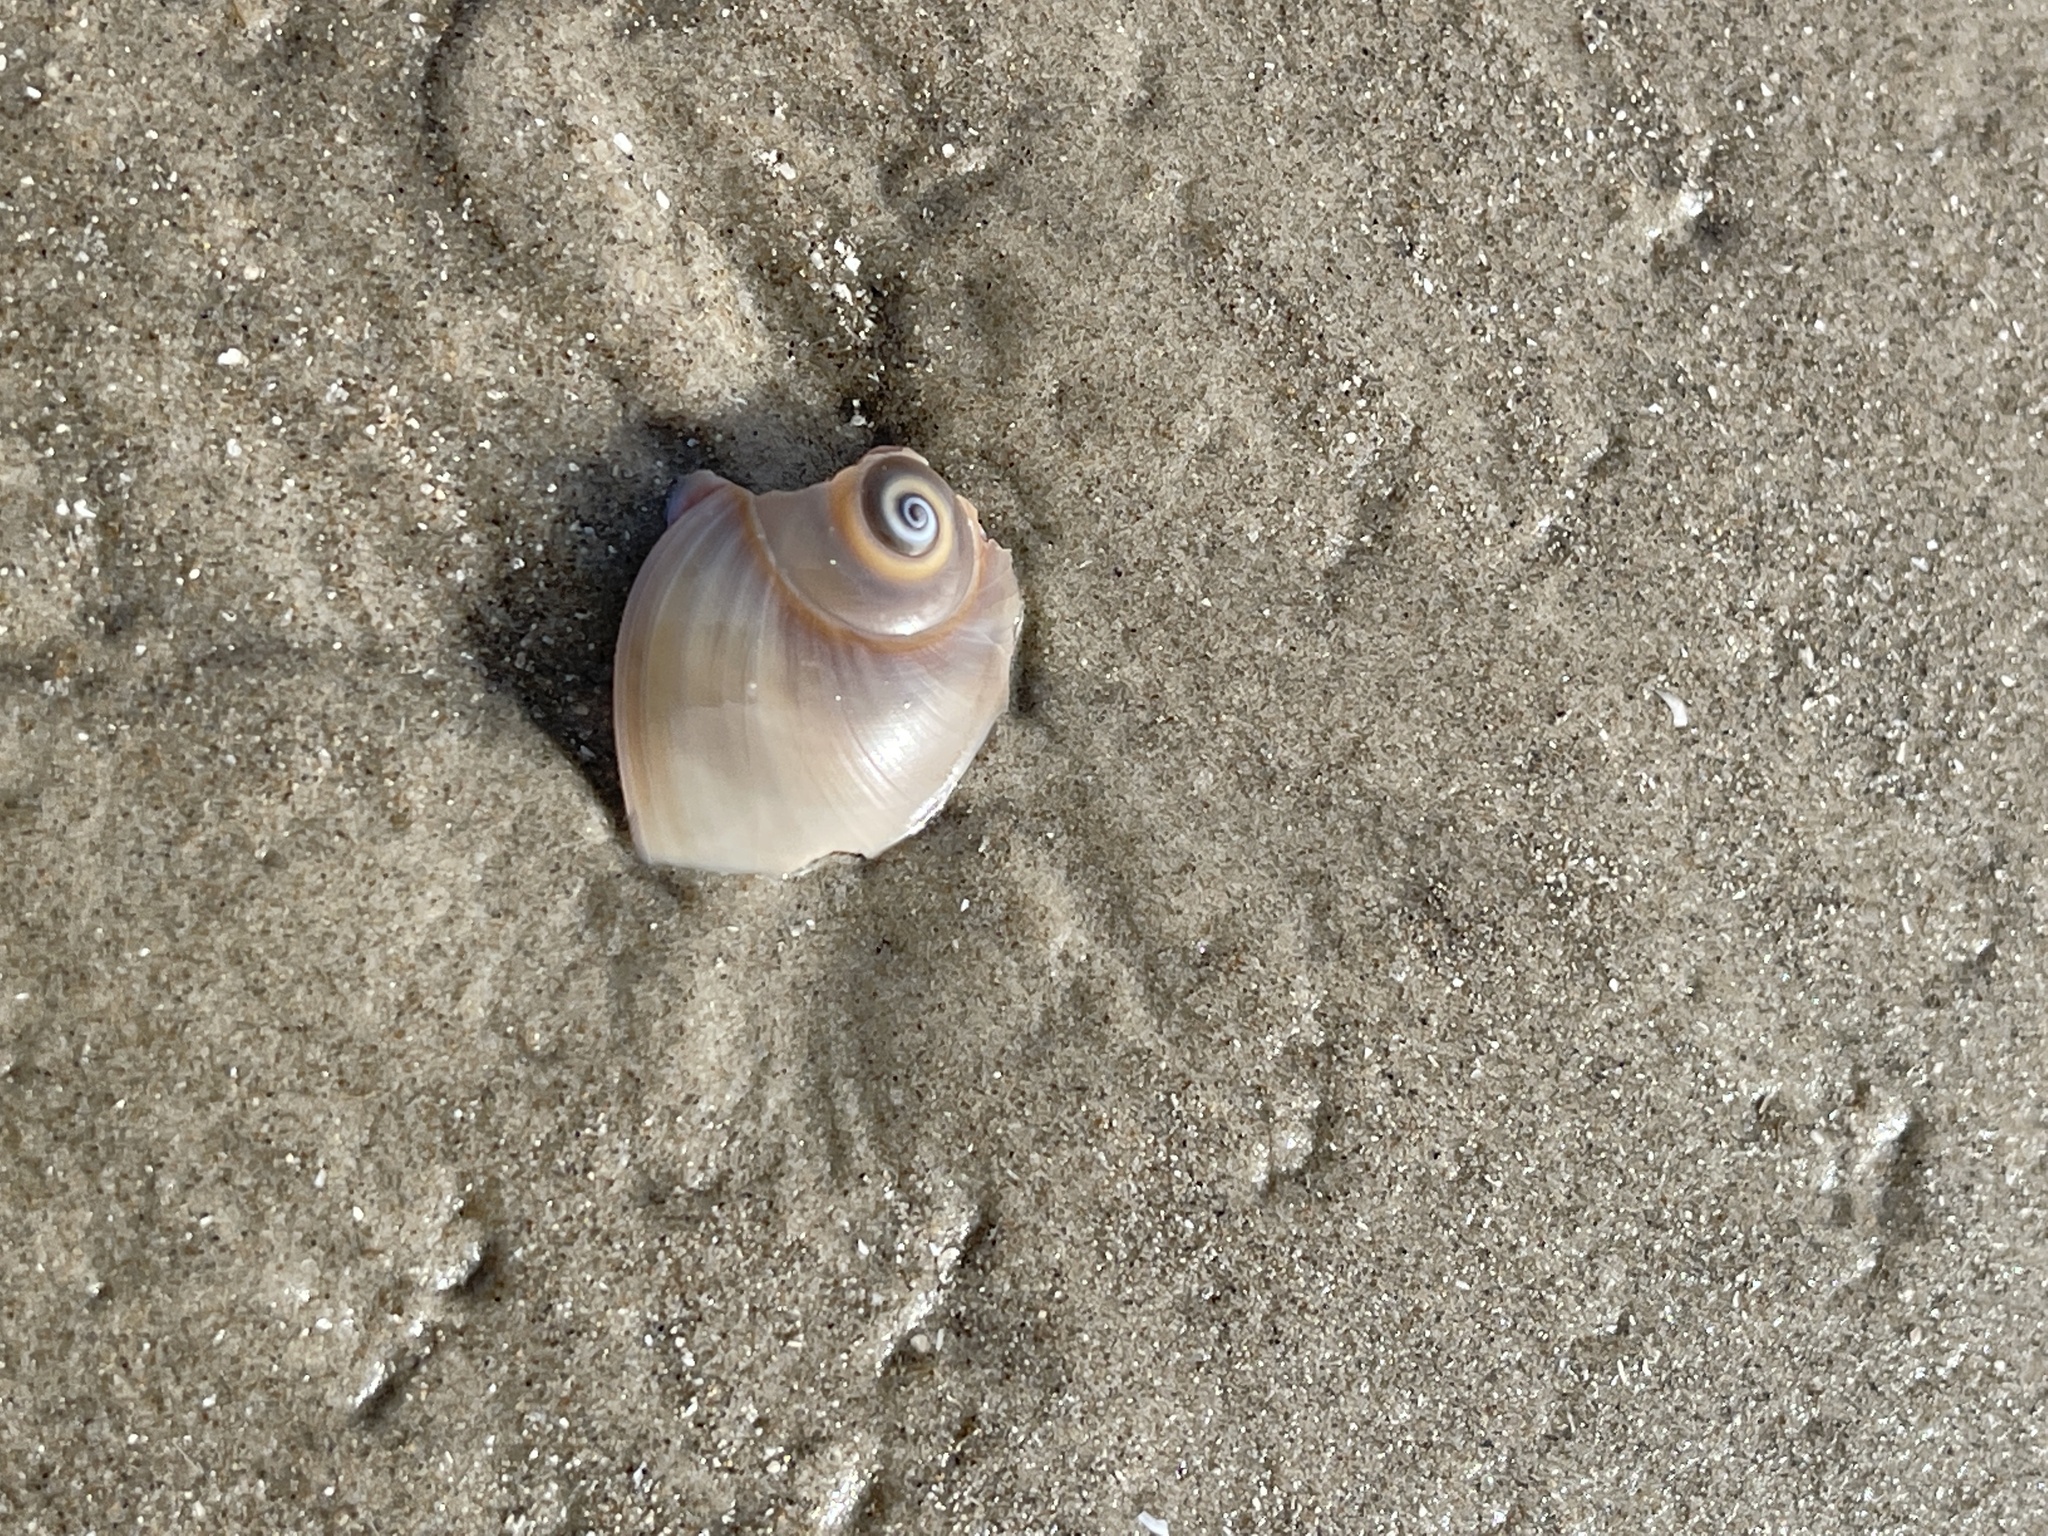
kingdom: Animalia
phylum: Mollusca
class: Gastropoda
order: Littorinimorpha
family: Naticidae
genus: Neverita
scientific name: Neverita duplicata
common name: Lobed moonsnail
